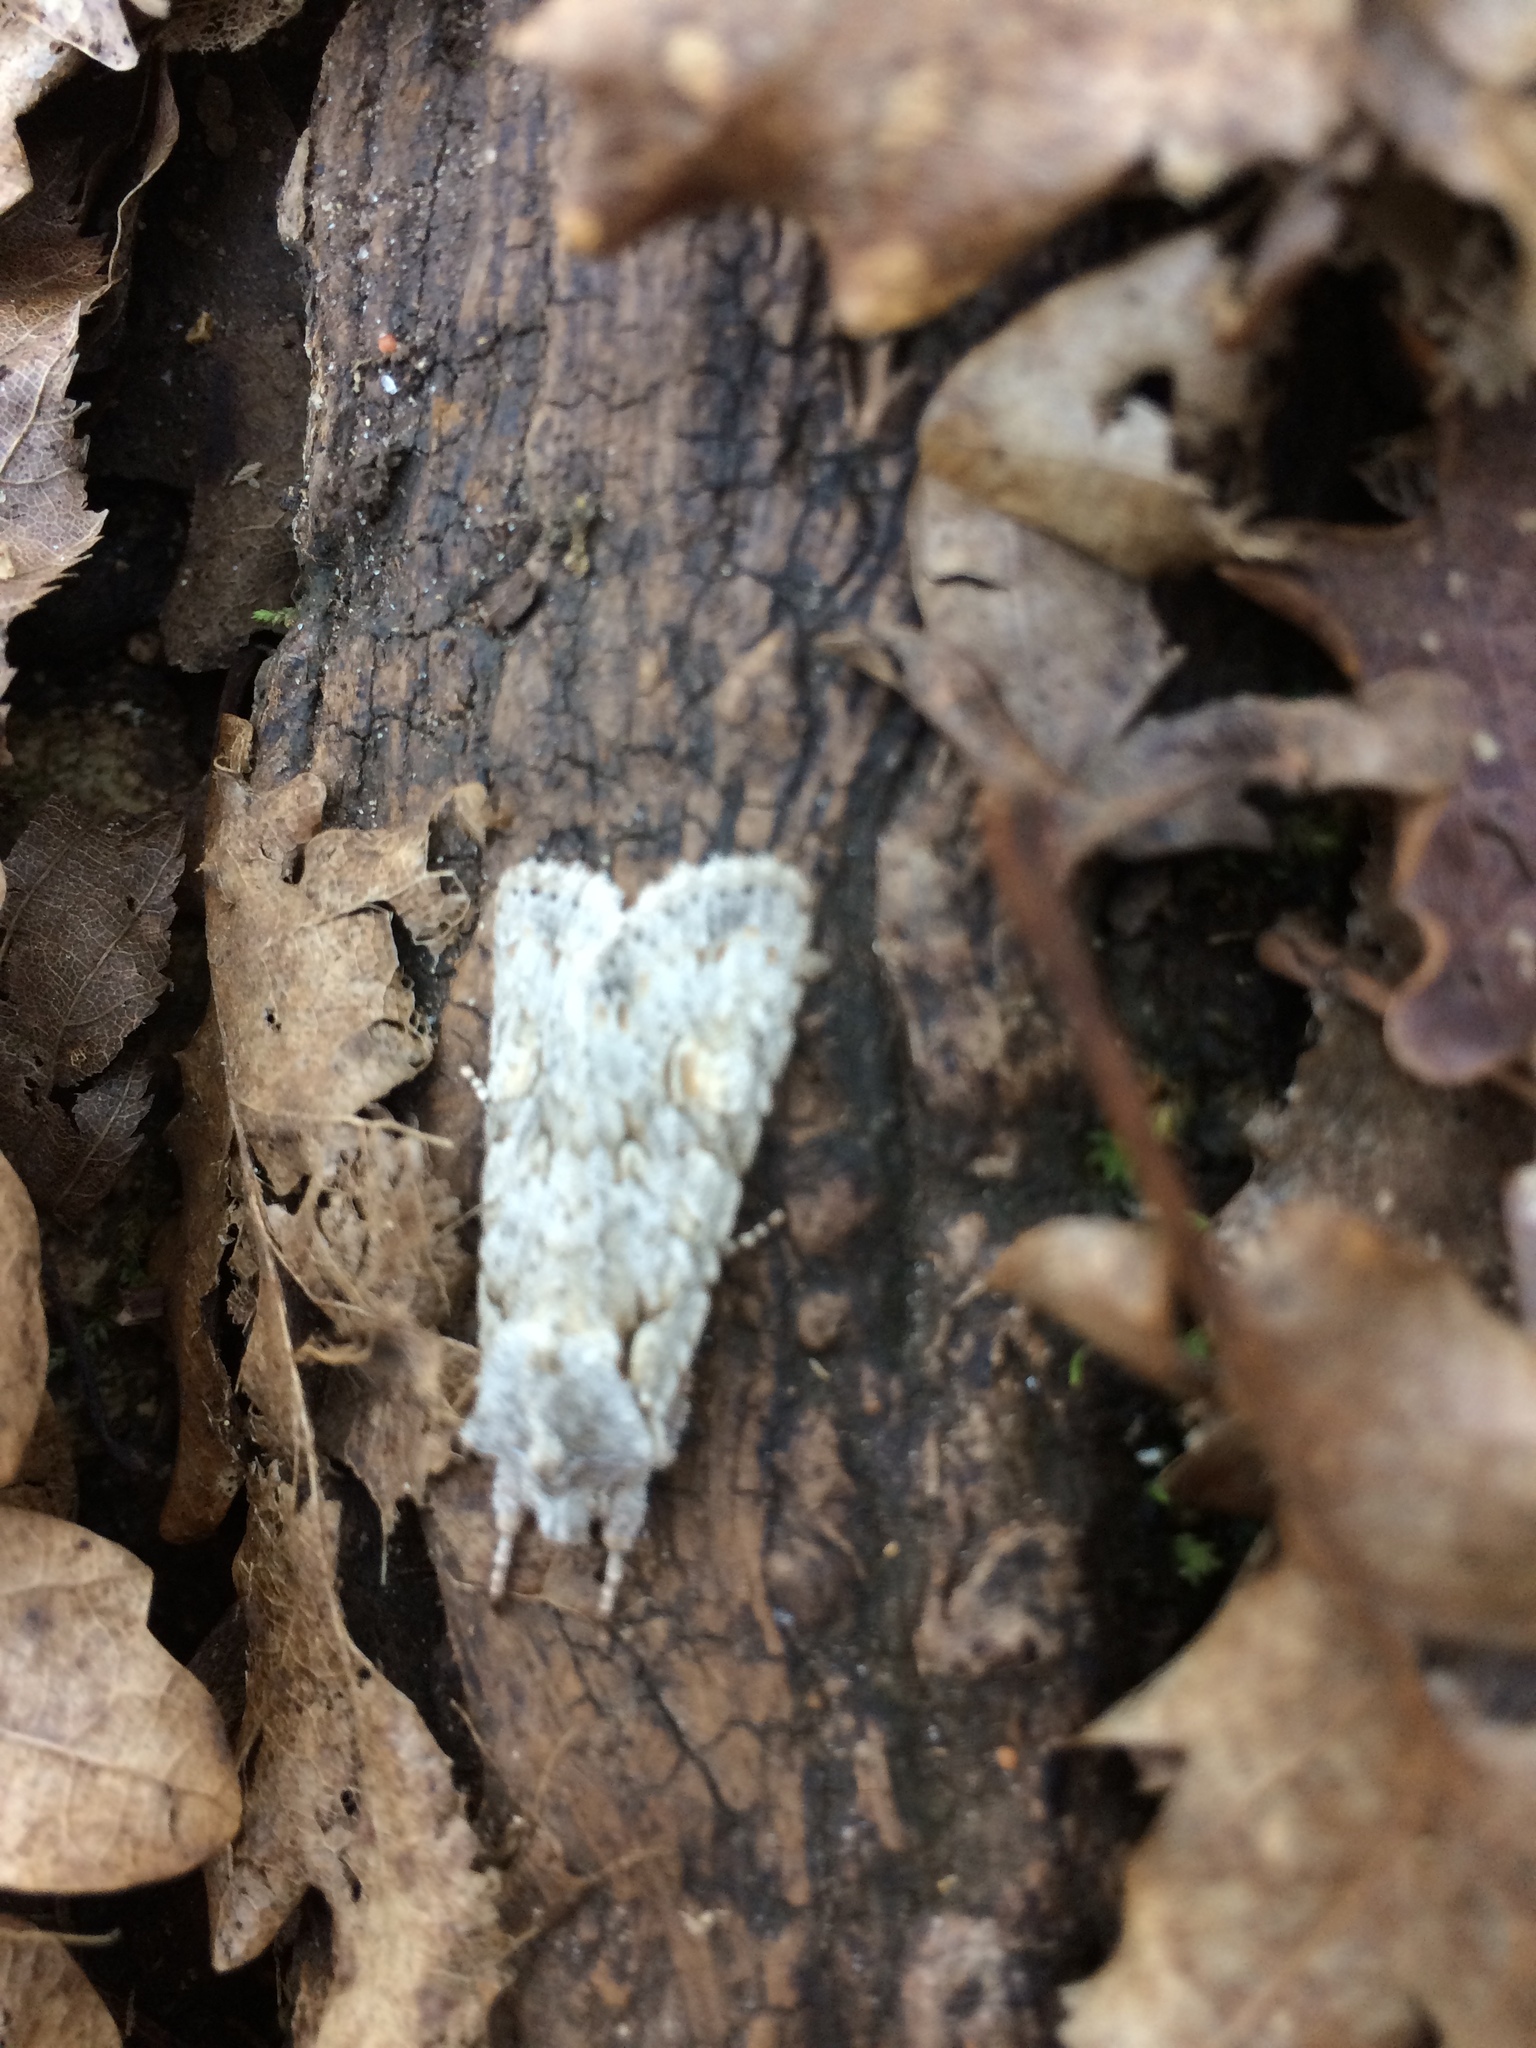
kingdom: Animalia
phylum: Arthropoda
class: Insecta
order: Lepidoptera
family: Noctuidae
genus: Lithophane
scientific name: Lithophane ornitopus
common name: Grey shoulder-knot
